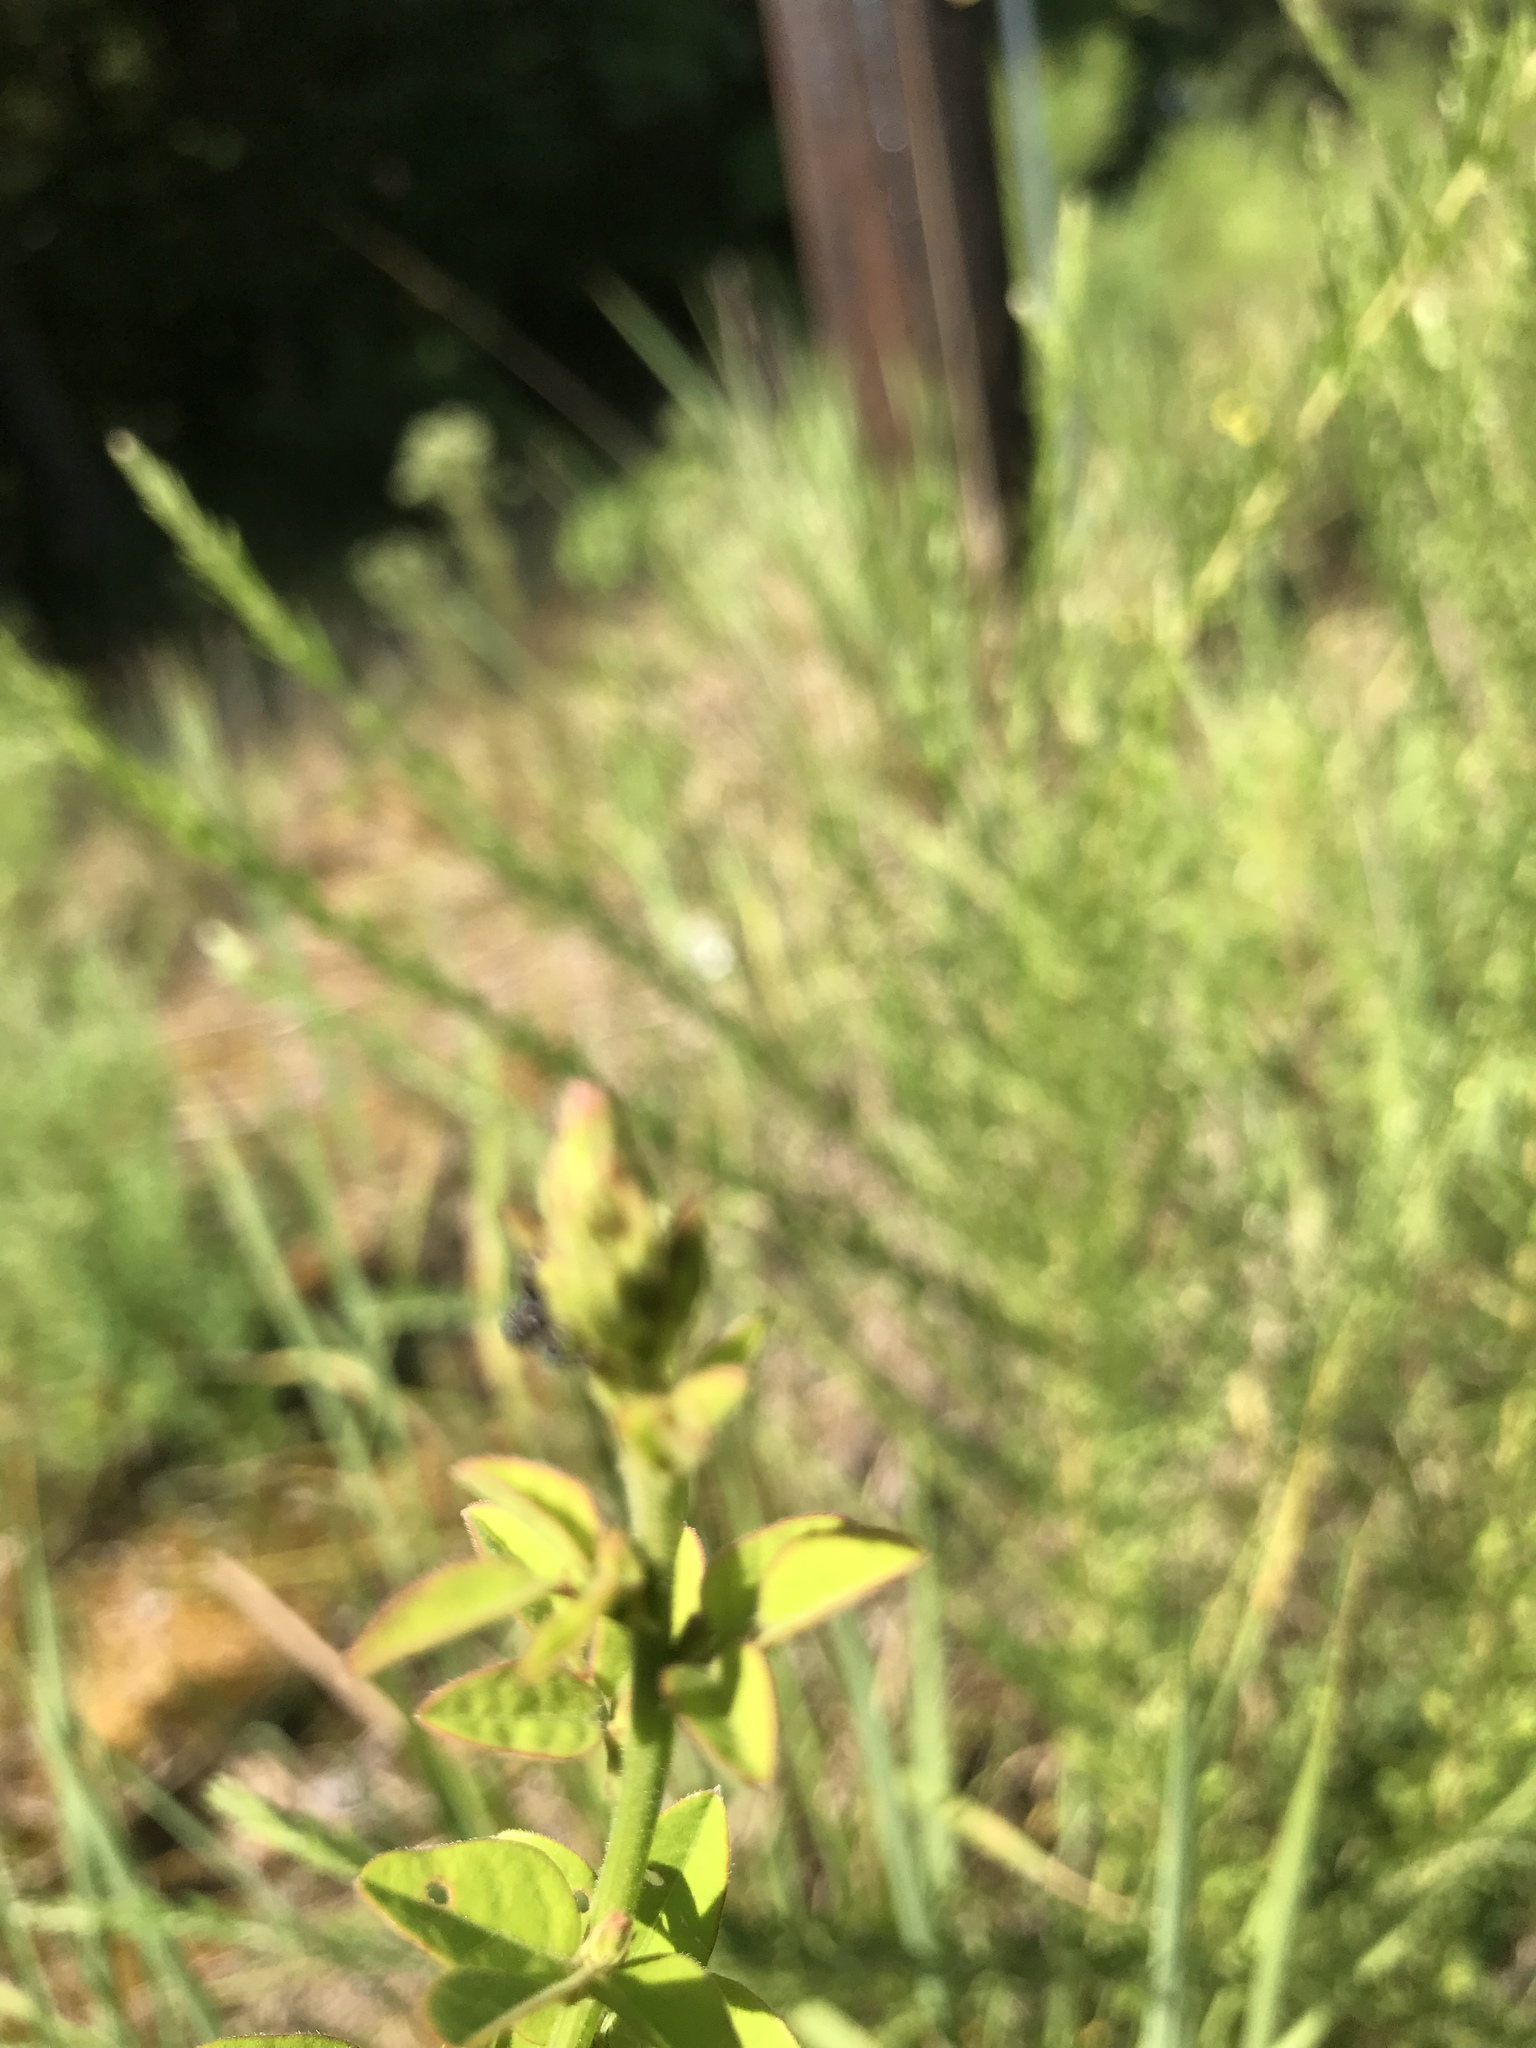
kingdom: Plantae
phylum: Tracheophyta
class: Magnoliopsida
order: Fabales
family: Fabaceae
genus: Desmodium
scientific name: Desmodium ciliare
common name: Hairy small-leaf ticktrefoil
